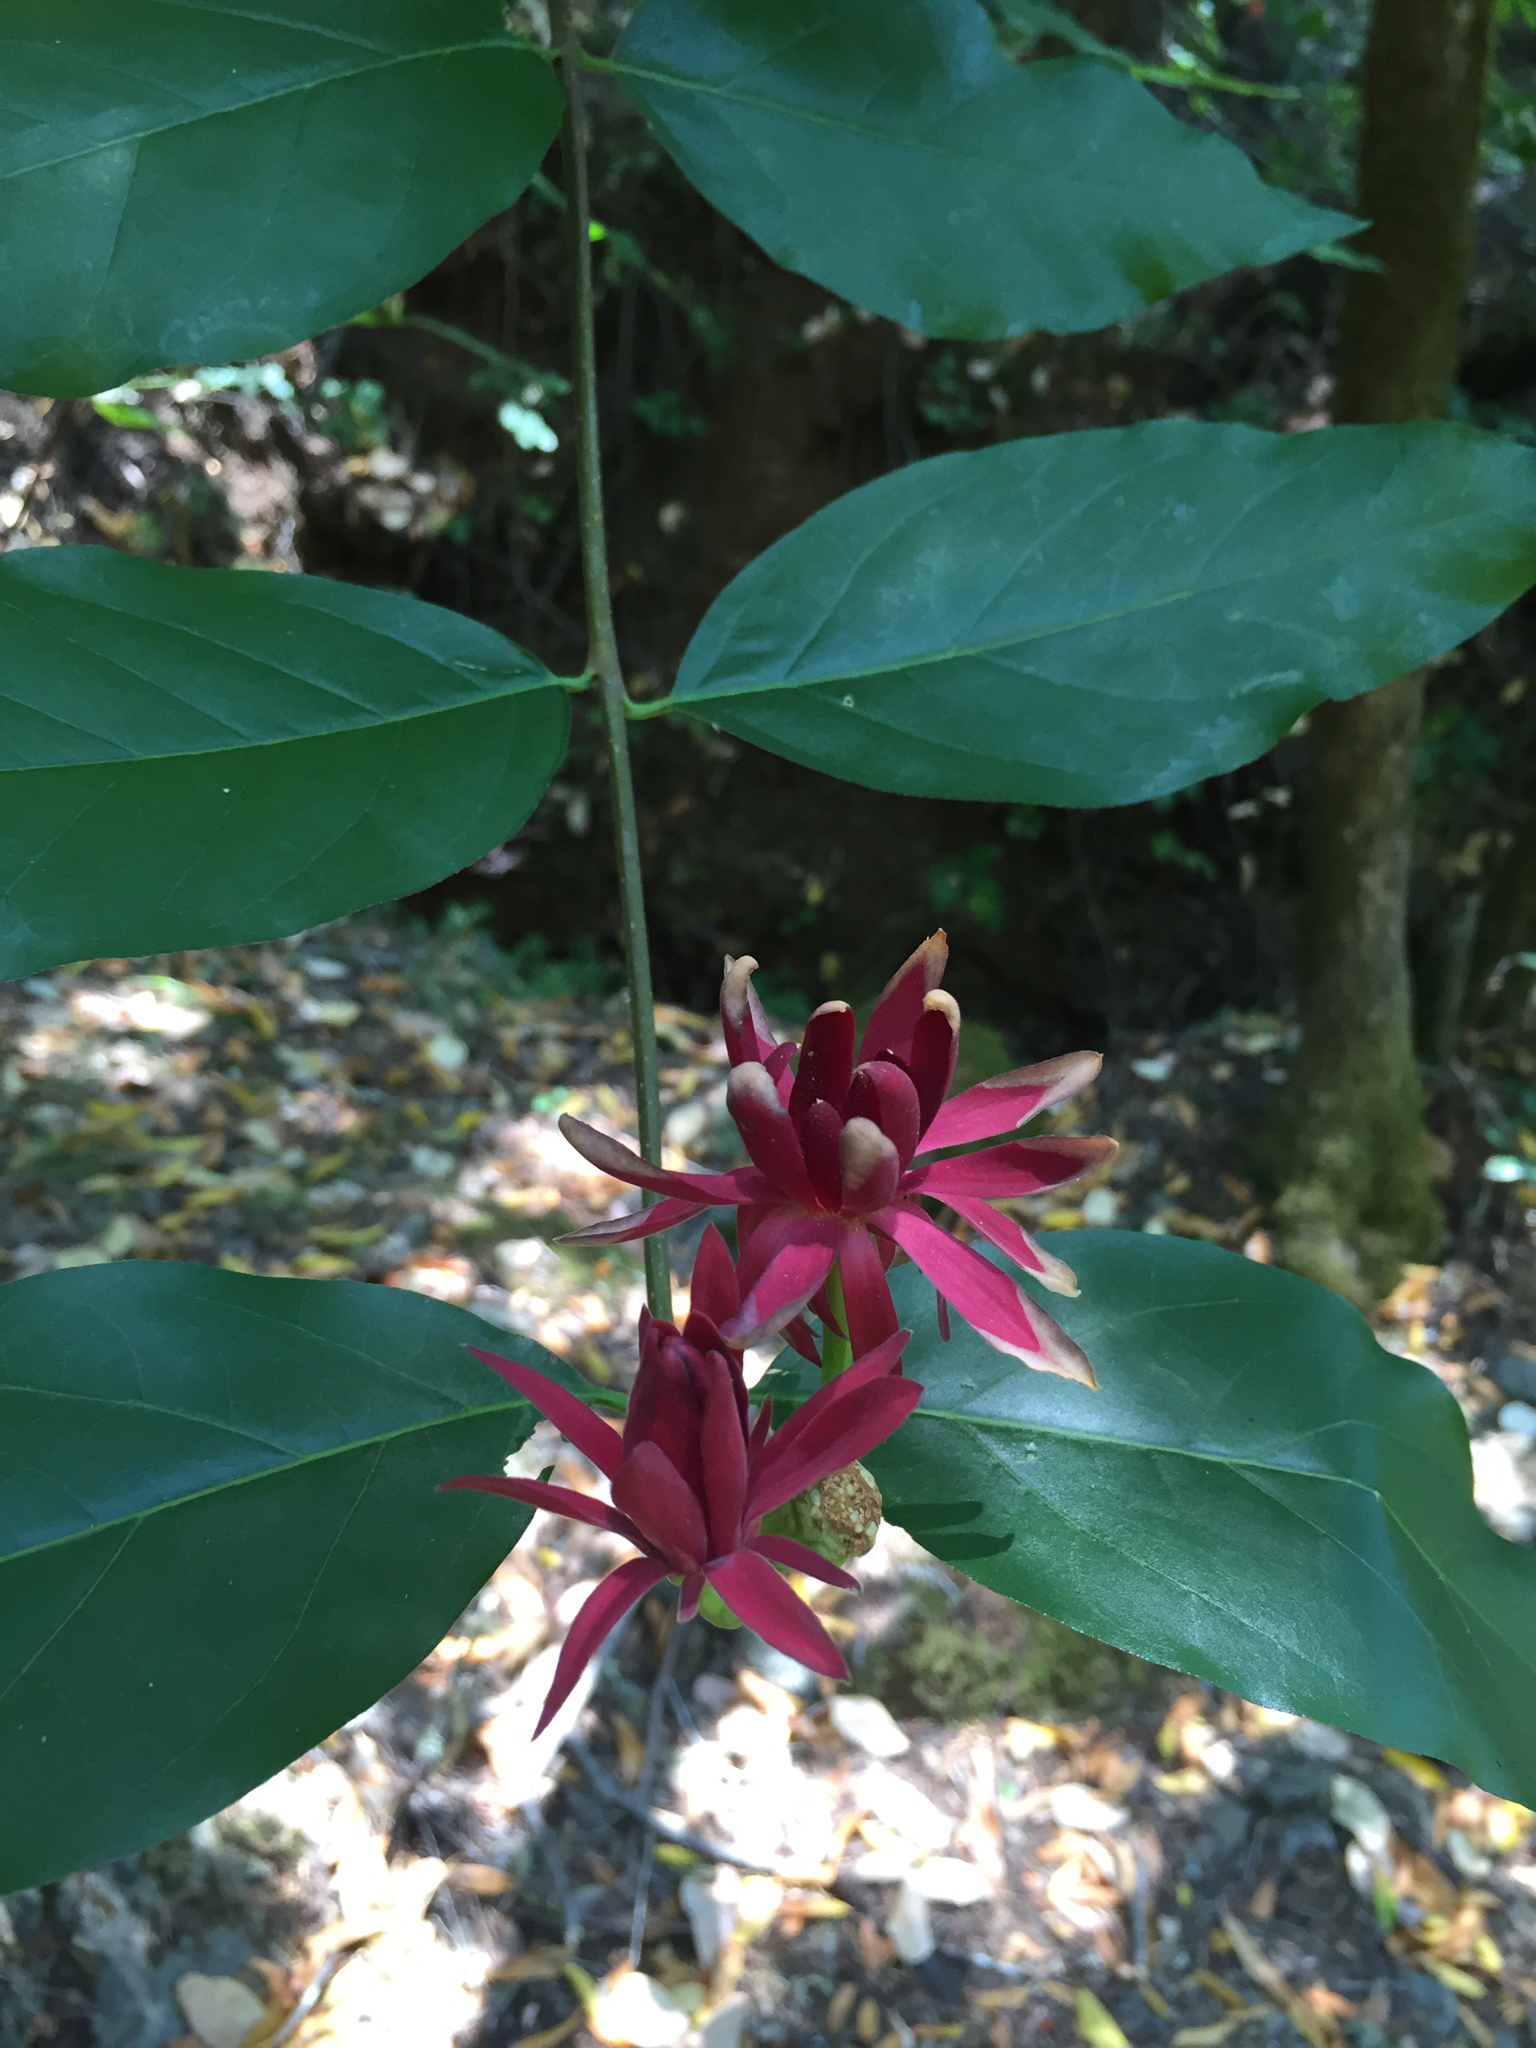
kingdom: Plantae
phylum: Tracheophyta
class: Magnoliopsida
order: Laurales
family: Calycanthaceae
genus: Calycanthus
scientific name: Calycanthus occidentalis
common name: California spicebush
